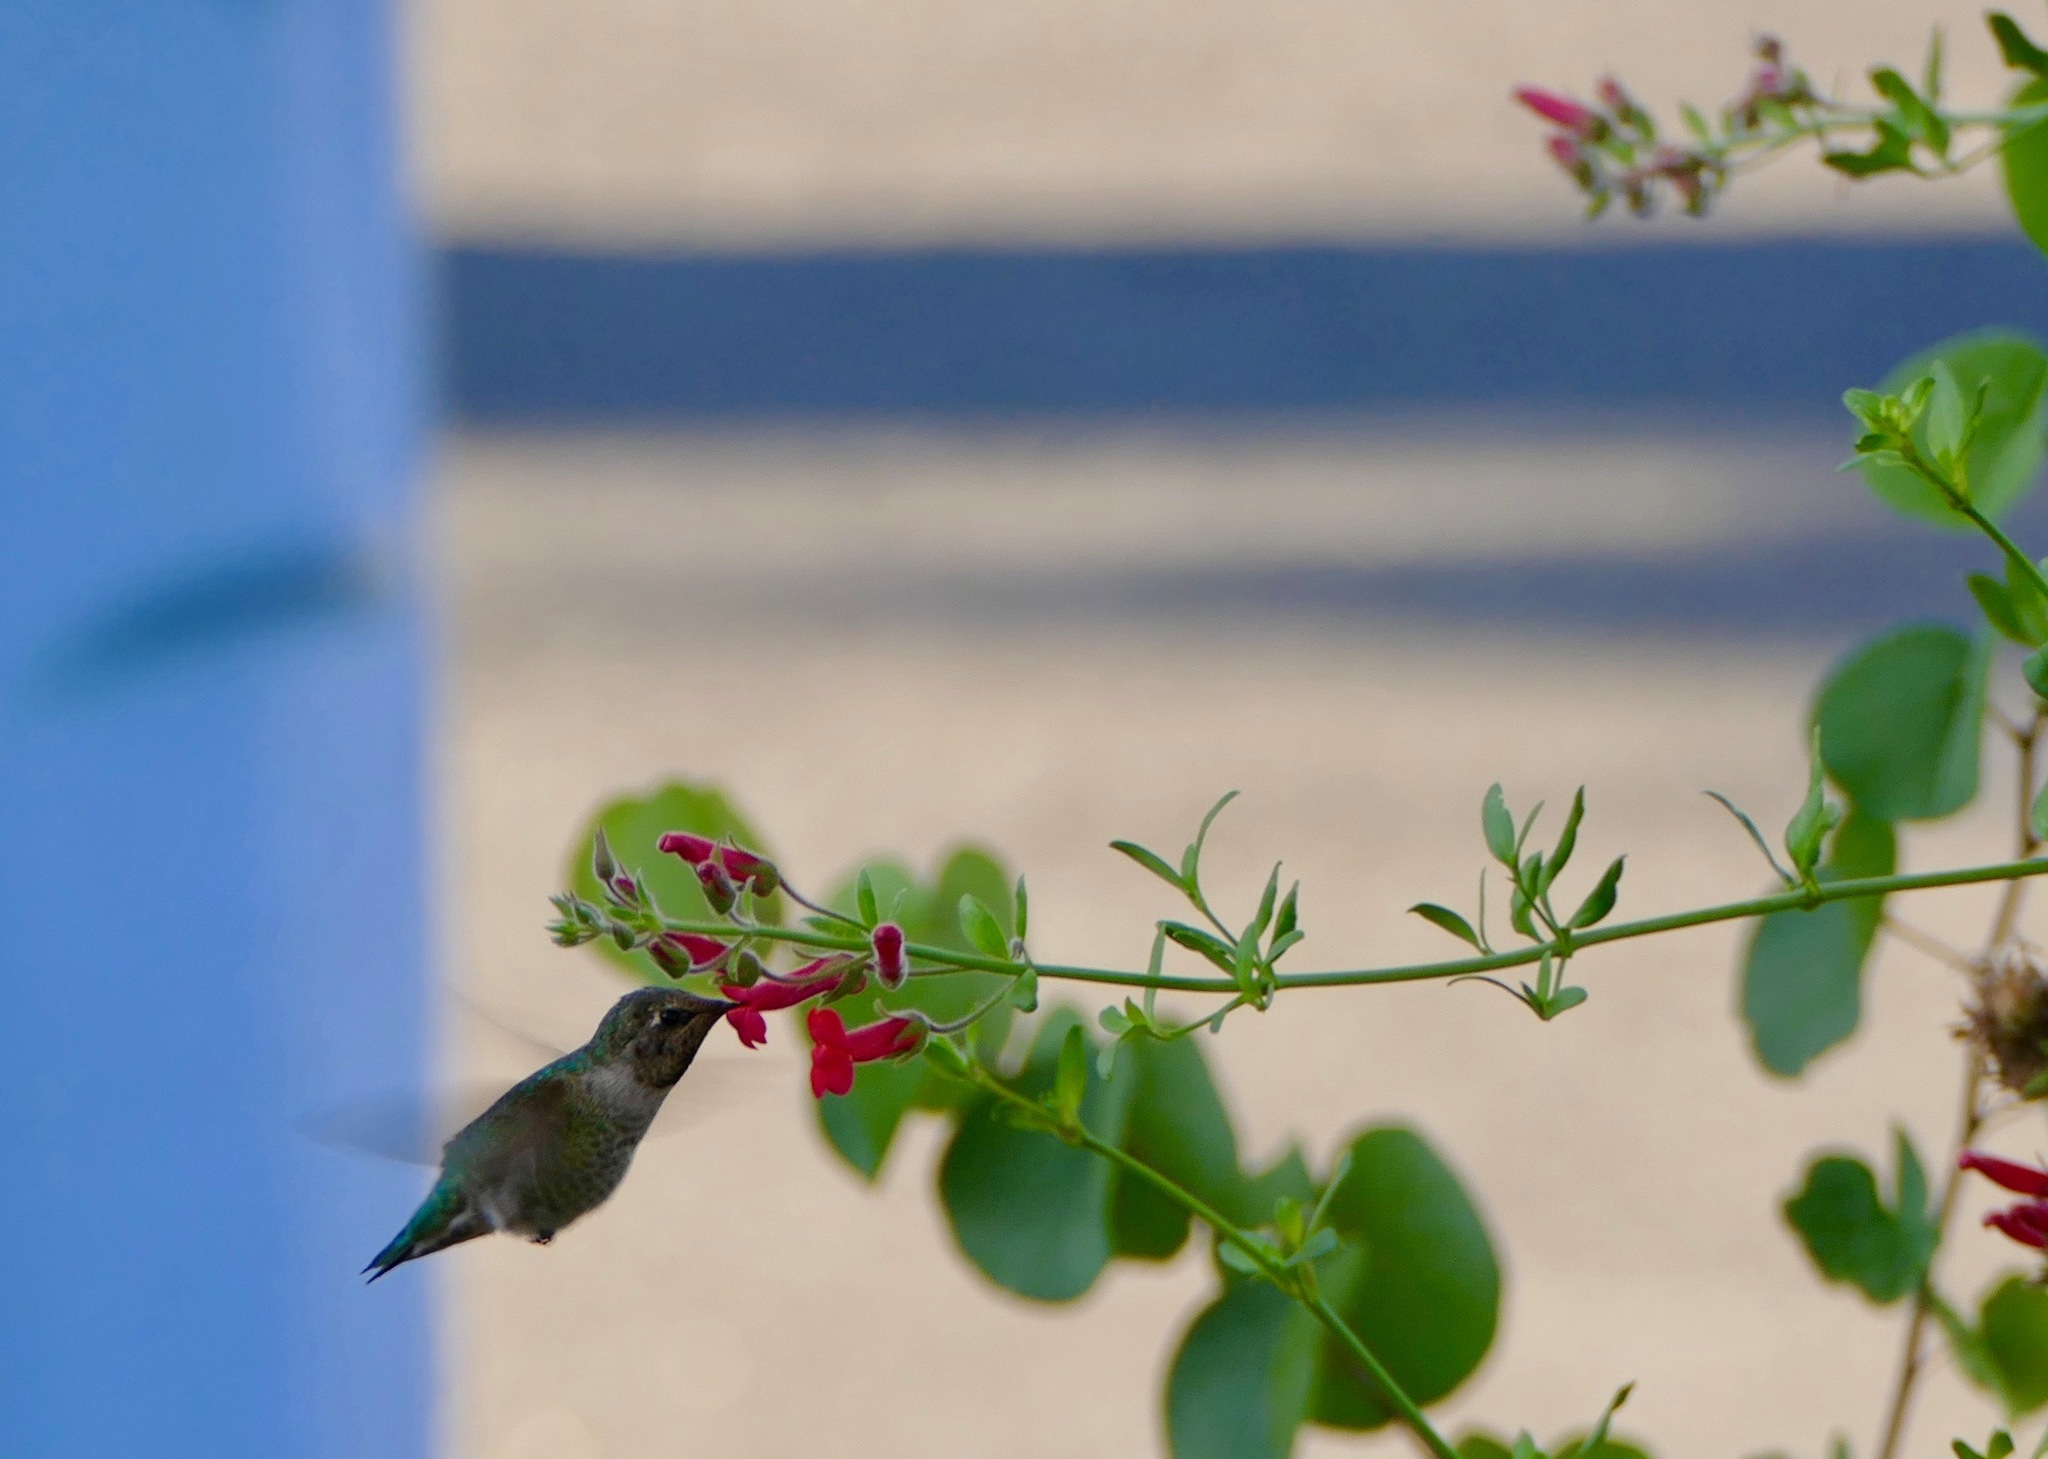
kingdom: Animalia
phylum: Chordata
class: Aves
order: Apodiformes
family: Trochilidae
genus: Calypte
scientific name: Calypte anna
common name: Anna's hummingbird
